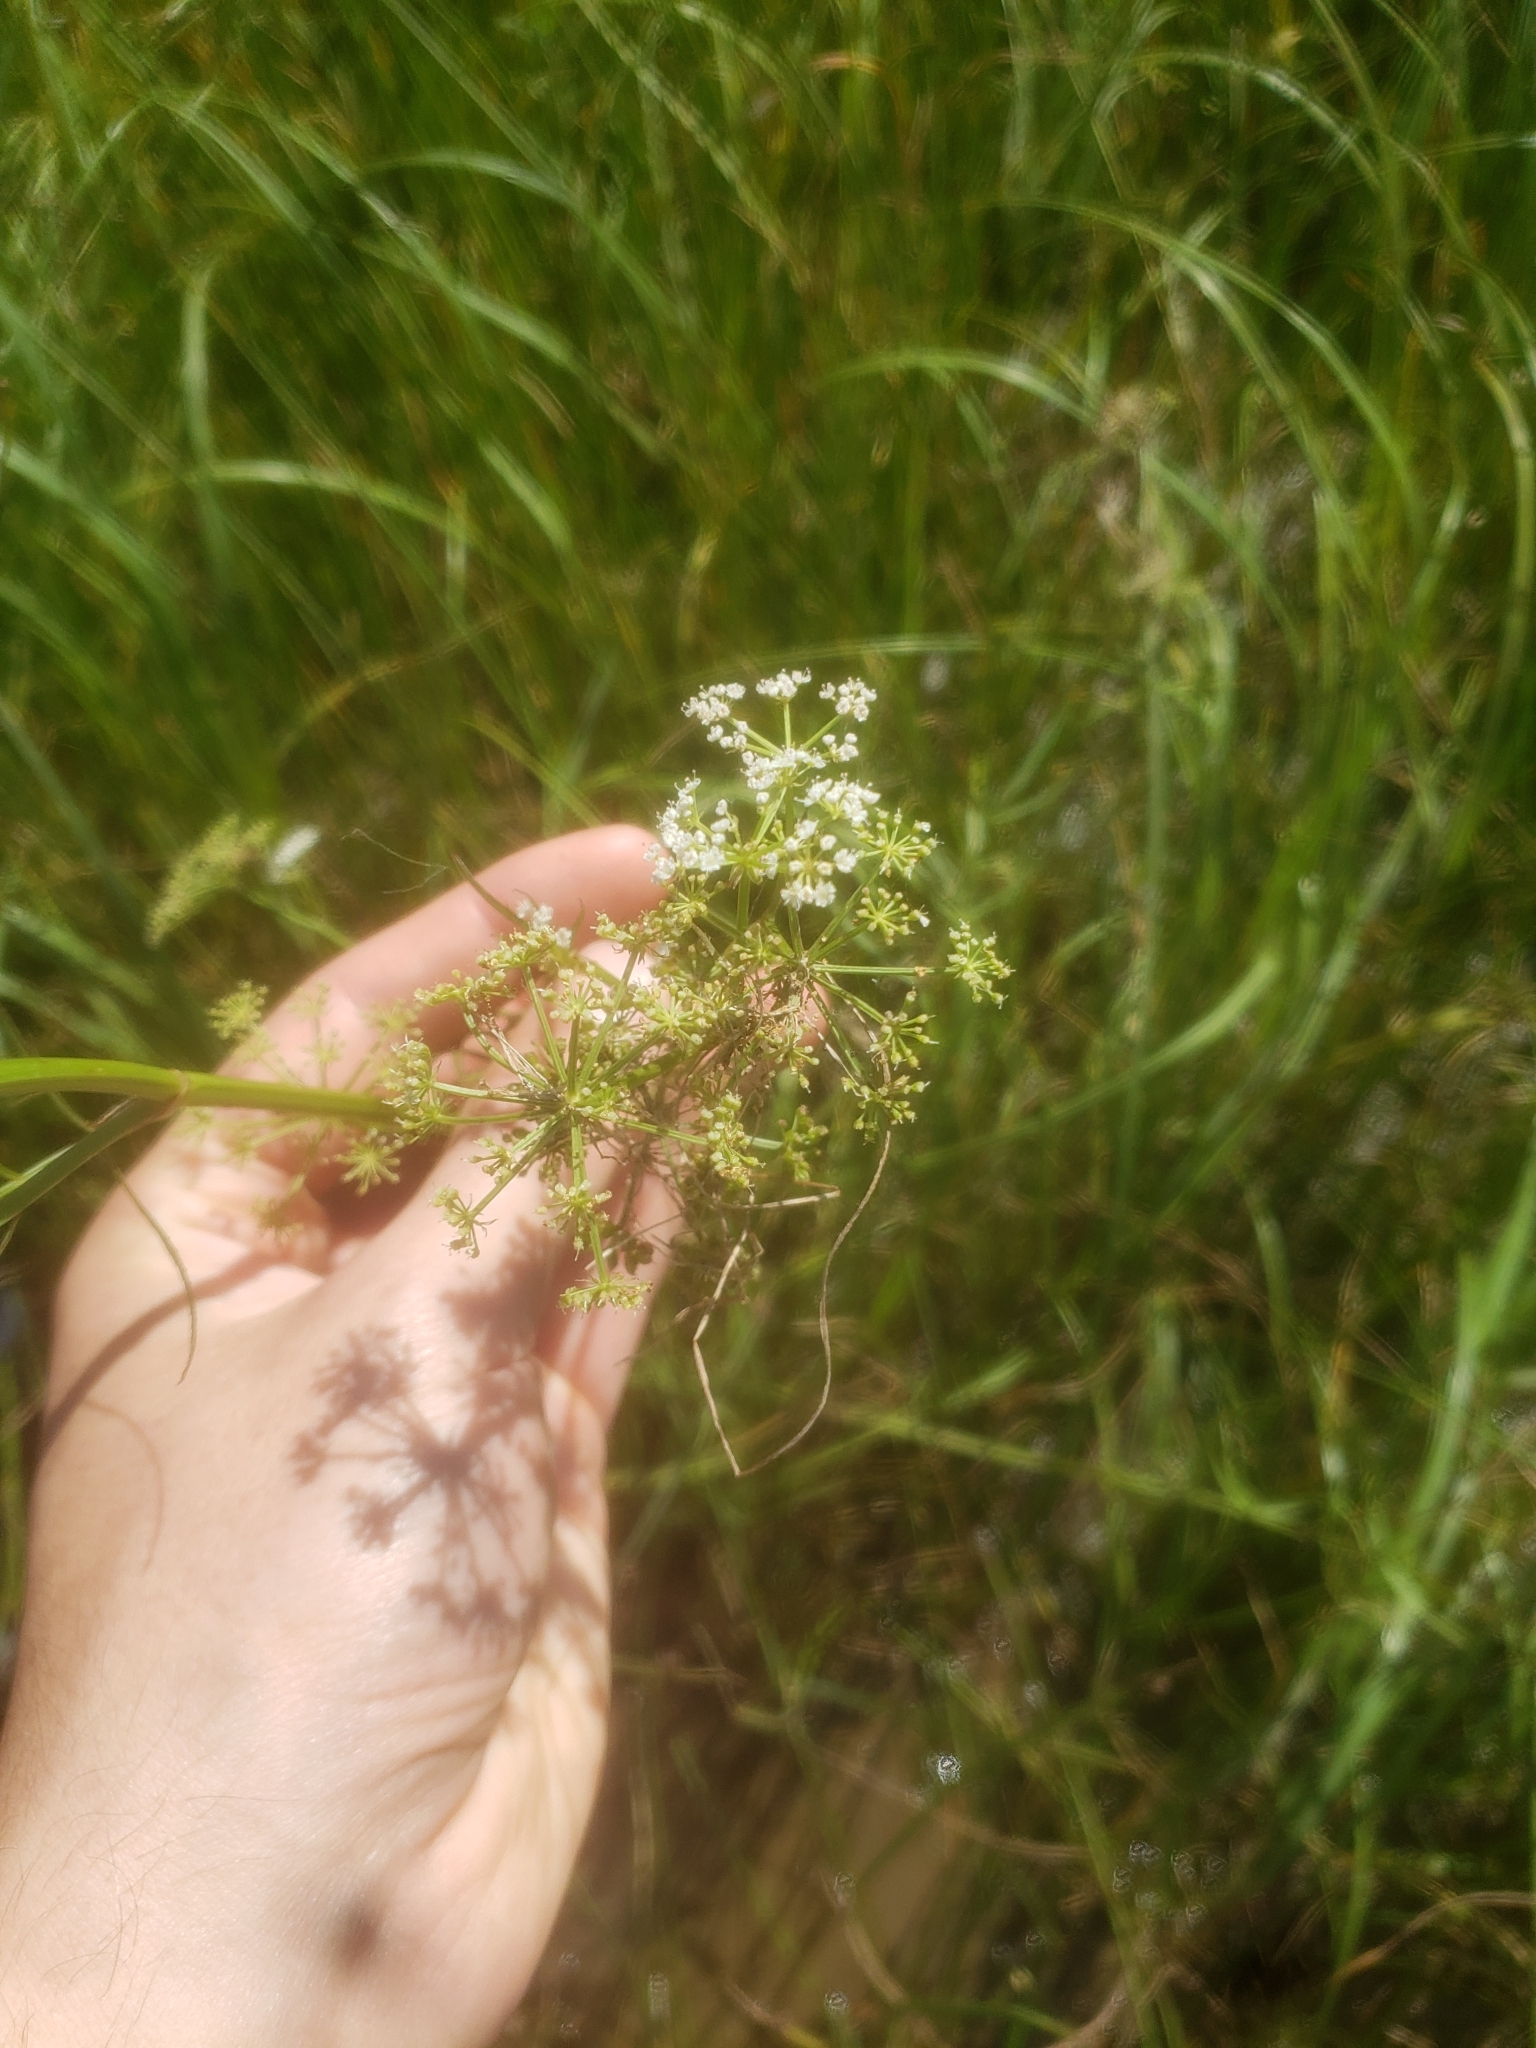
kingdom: Plantae
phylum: Tracheophyta
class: Magnoliopsida
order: Apiales
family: Apiaceae
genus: Sium
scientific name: Sium suave
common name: Hemlock water-parsnip
